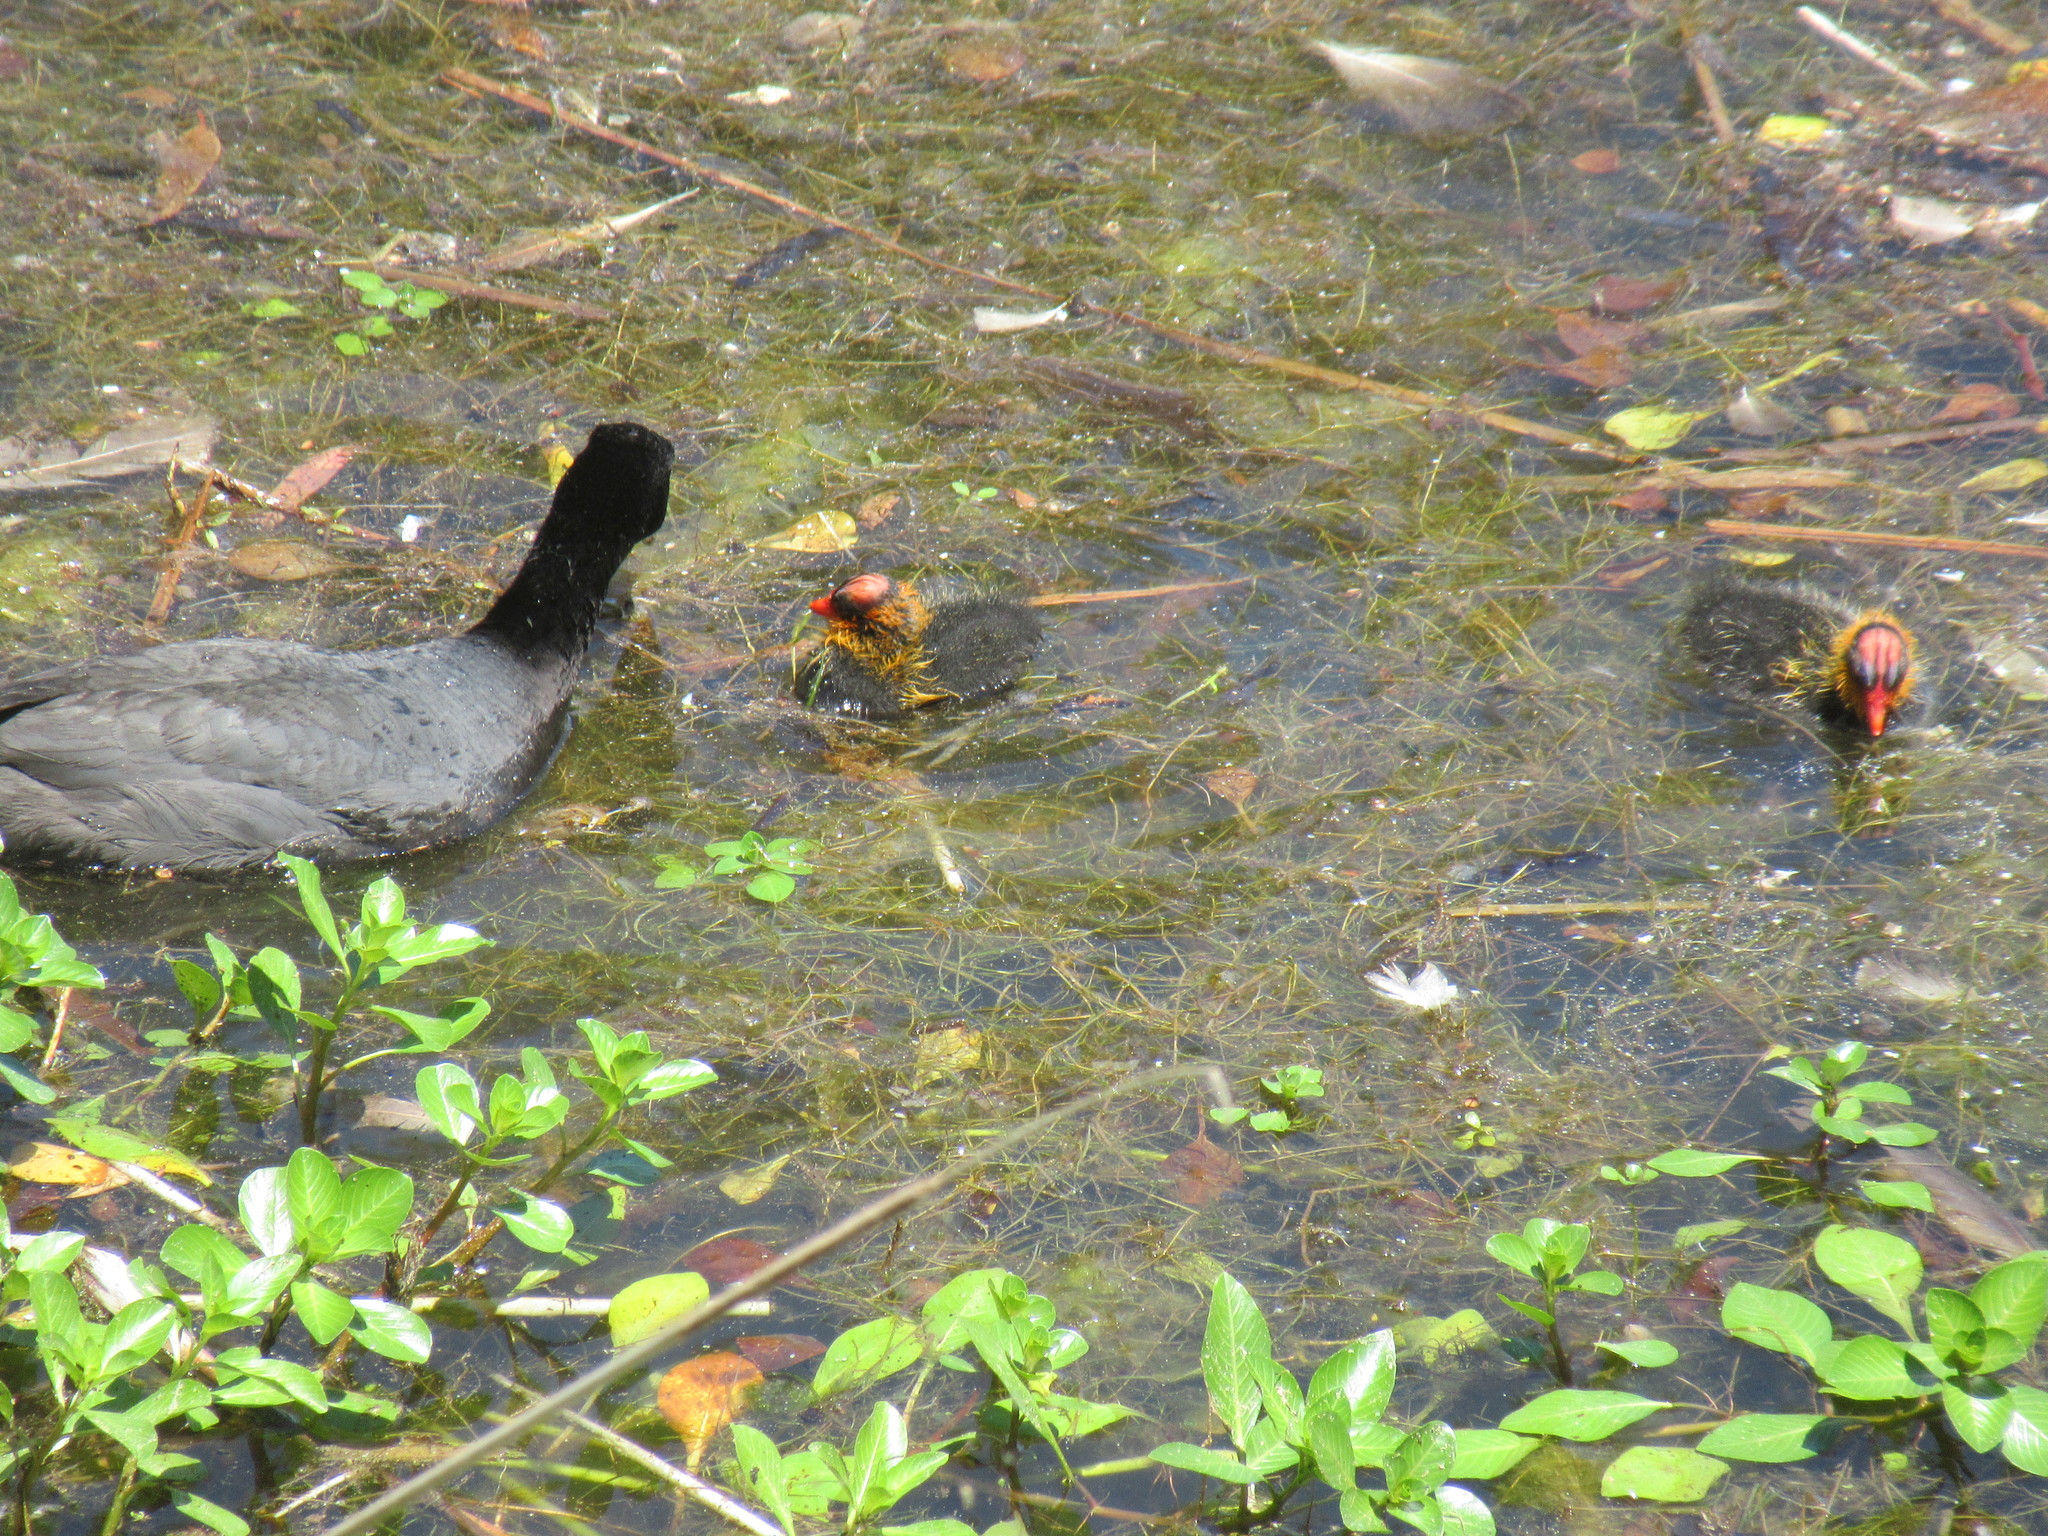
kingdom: Animalia
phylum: Chordata
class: Aves
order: Gruiformes
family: Rallidae
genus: Fulica
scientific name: Fulica americana
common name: American coot
